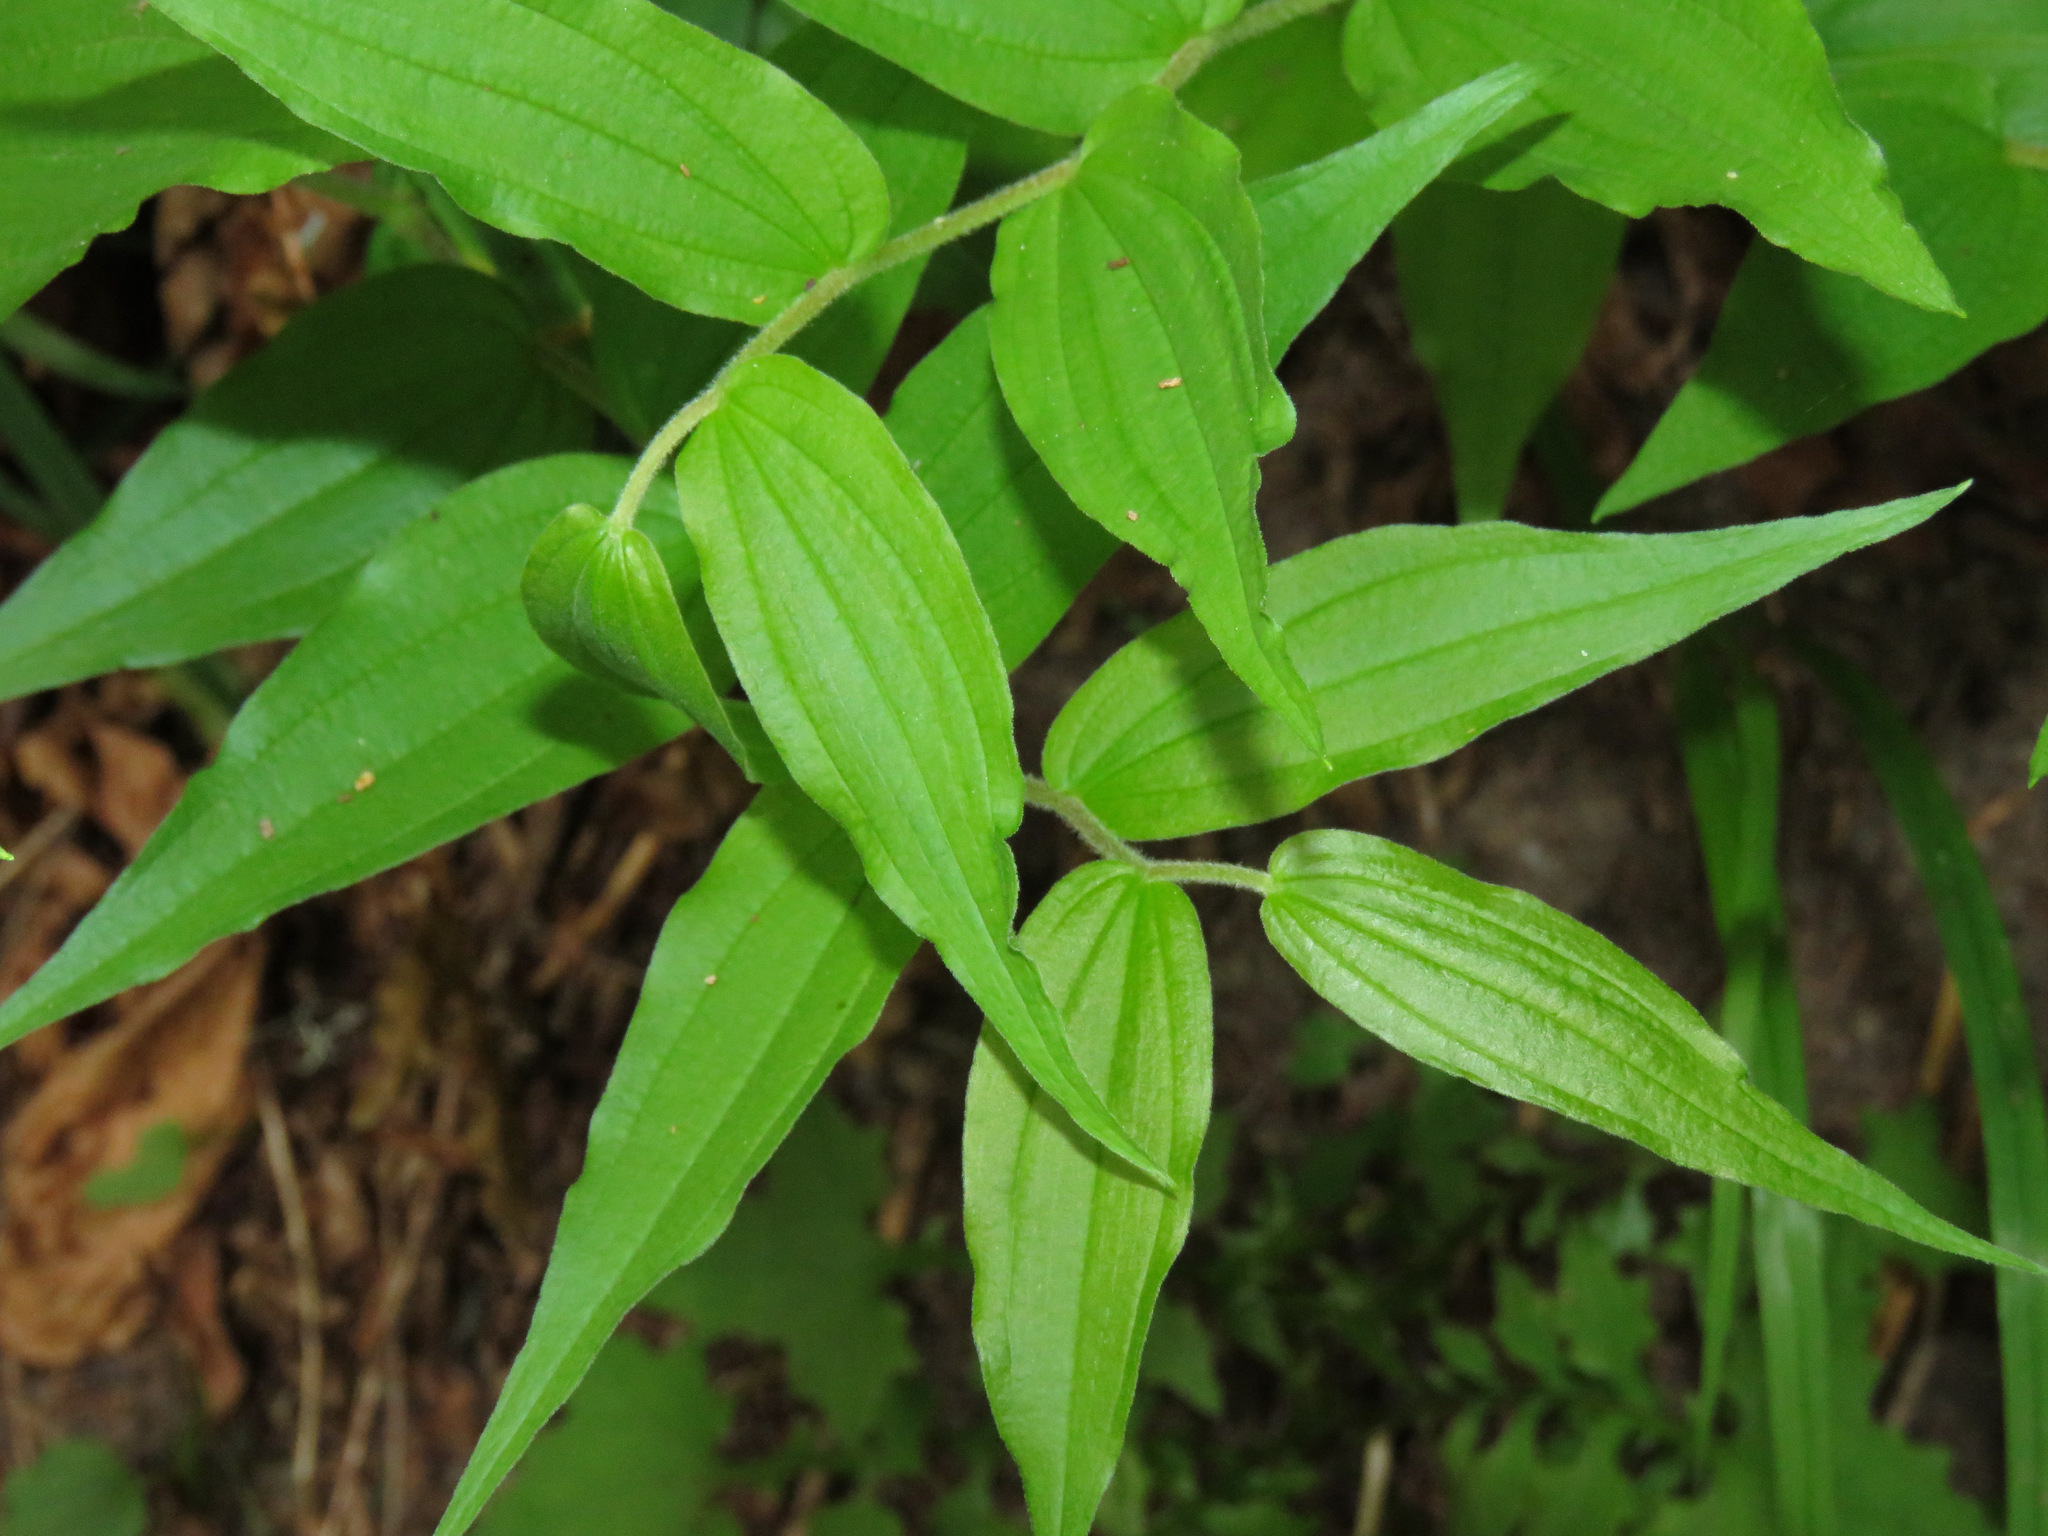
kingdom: Plantae
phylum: Tracheophyta
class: Liliopsida
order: Liliales
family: Liliaceae
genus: Prosartes
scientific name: Prosartes hookeri
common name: Fairy-bells
